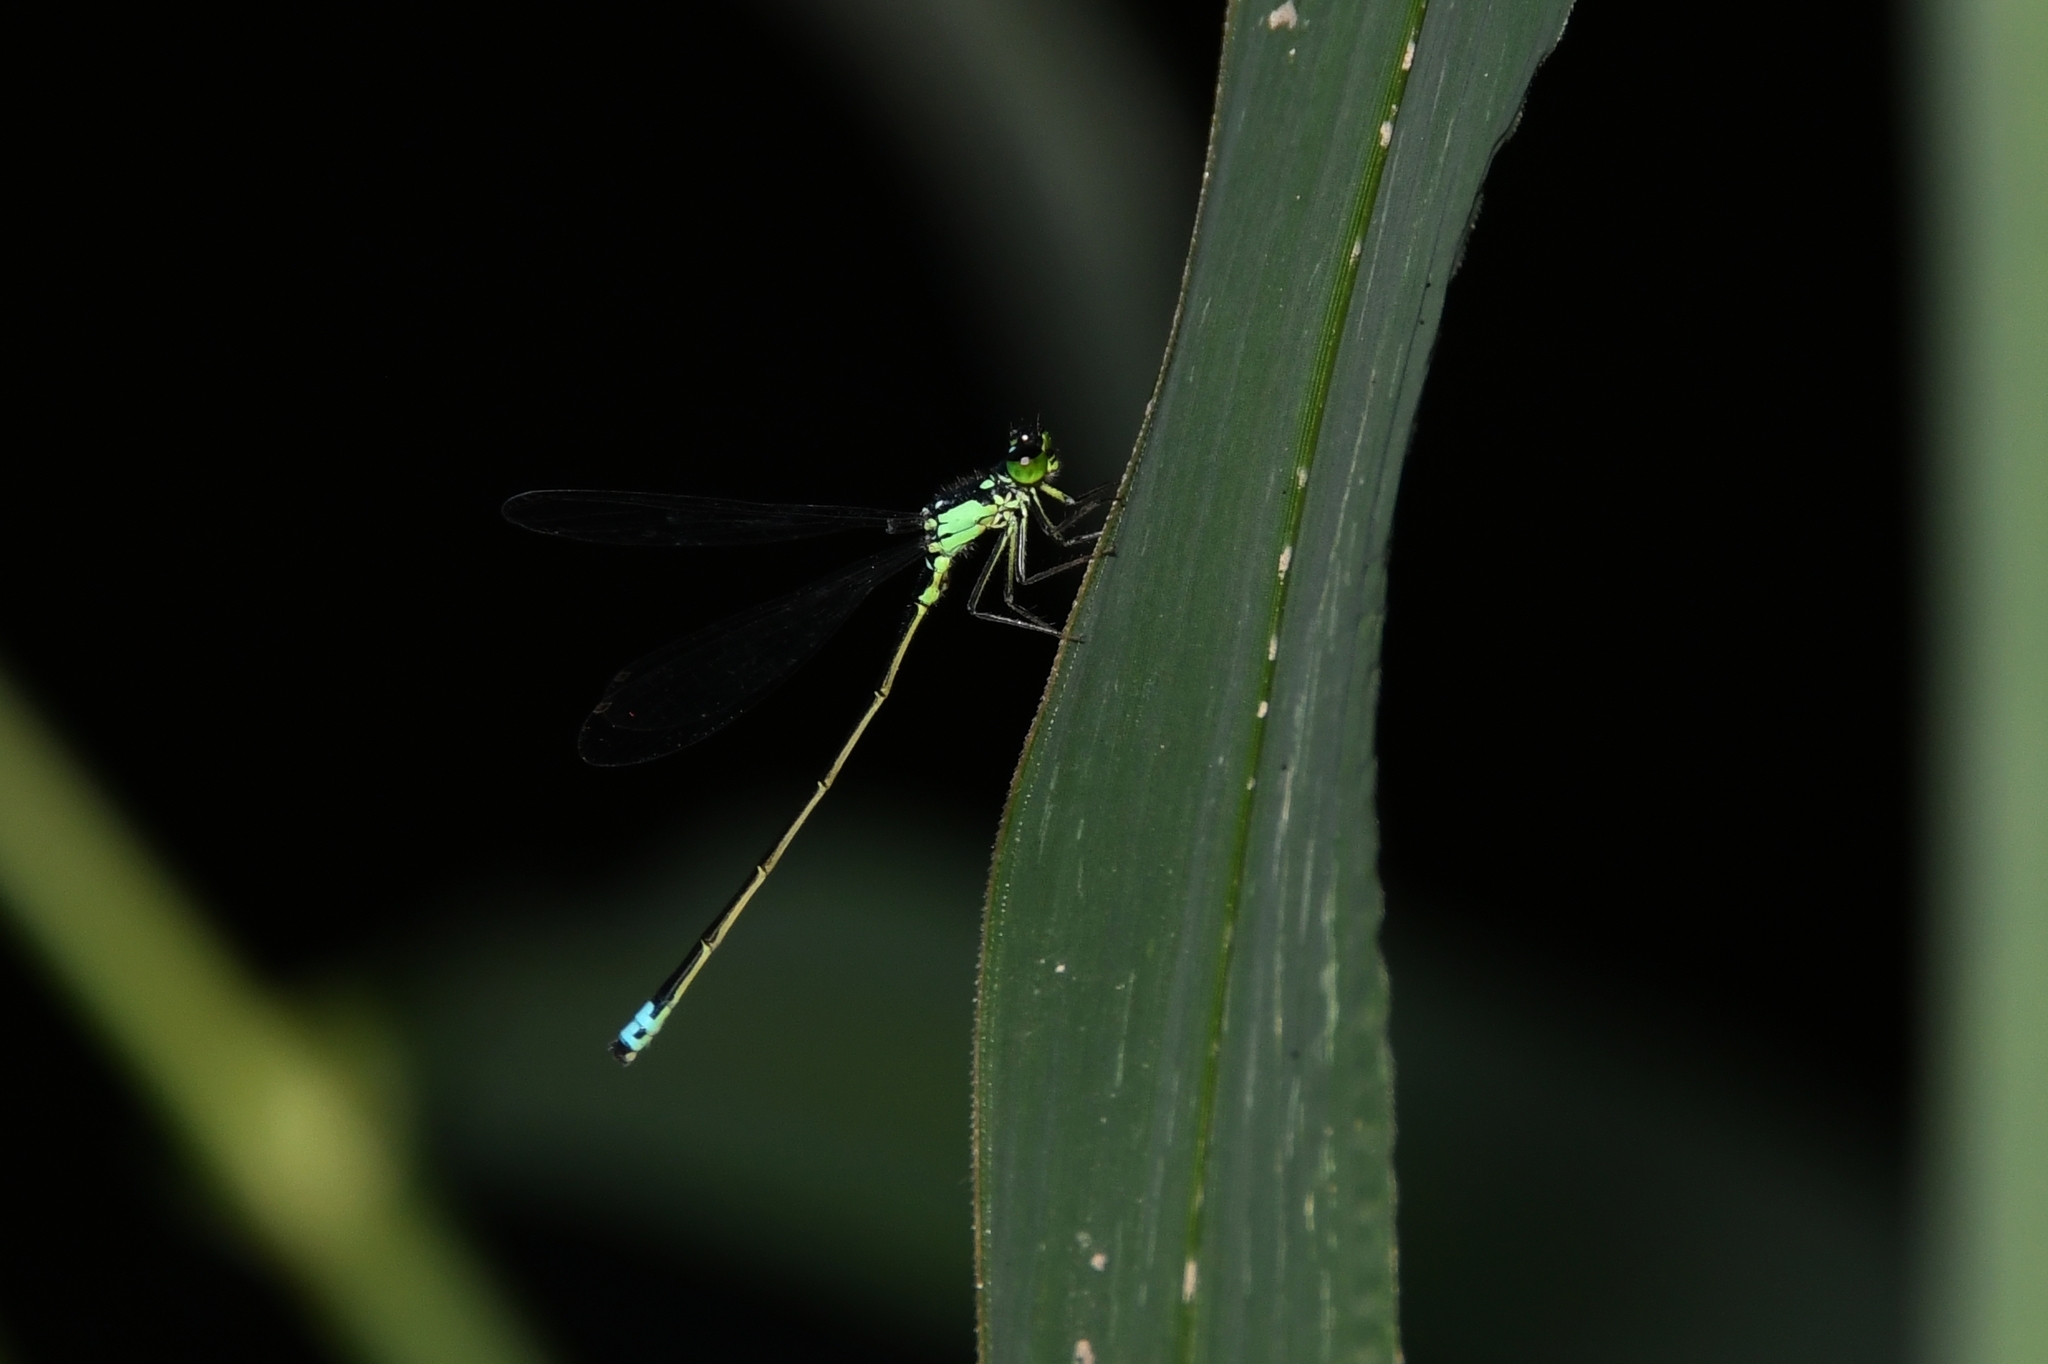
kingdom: Animalia
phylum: Arthropoda
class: Insecta
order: Odonata
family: Coenagrionidae
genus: Ischnura
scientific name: Ischnura cervula
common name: Pacific forktail
